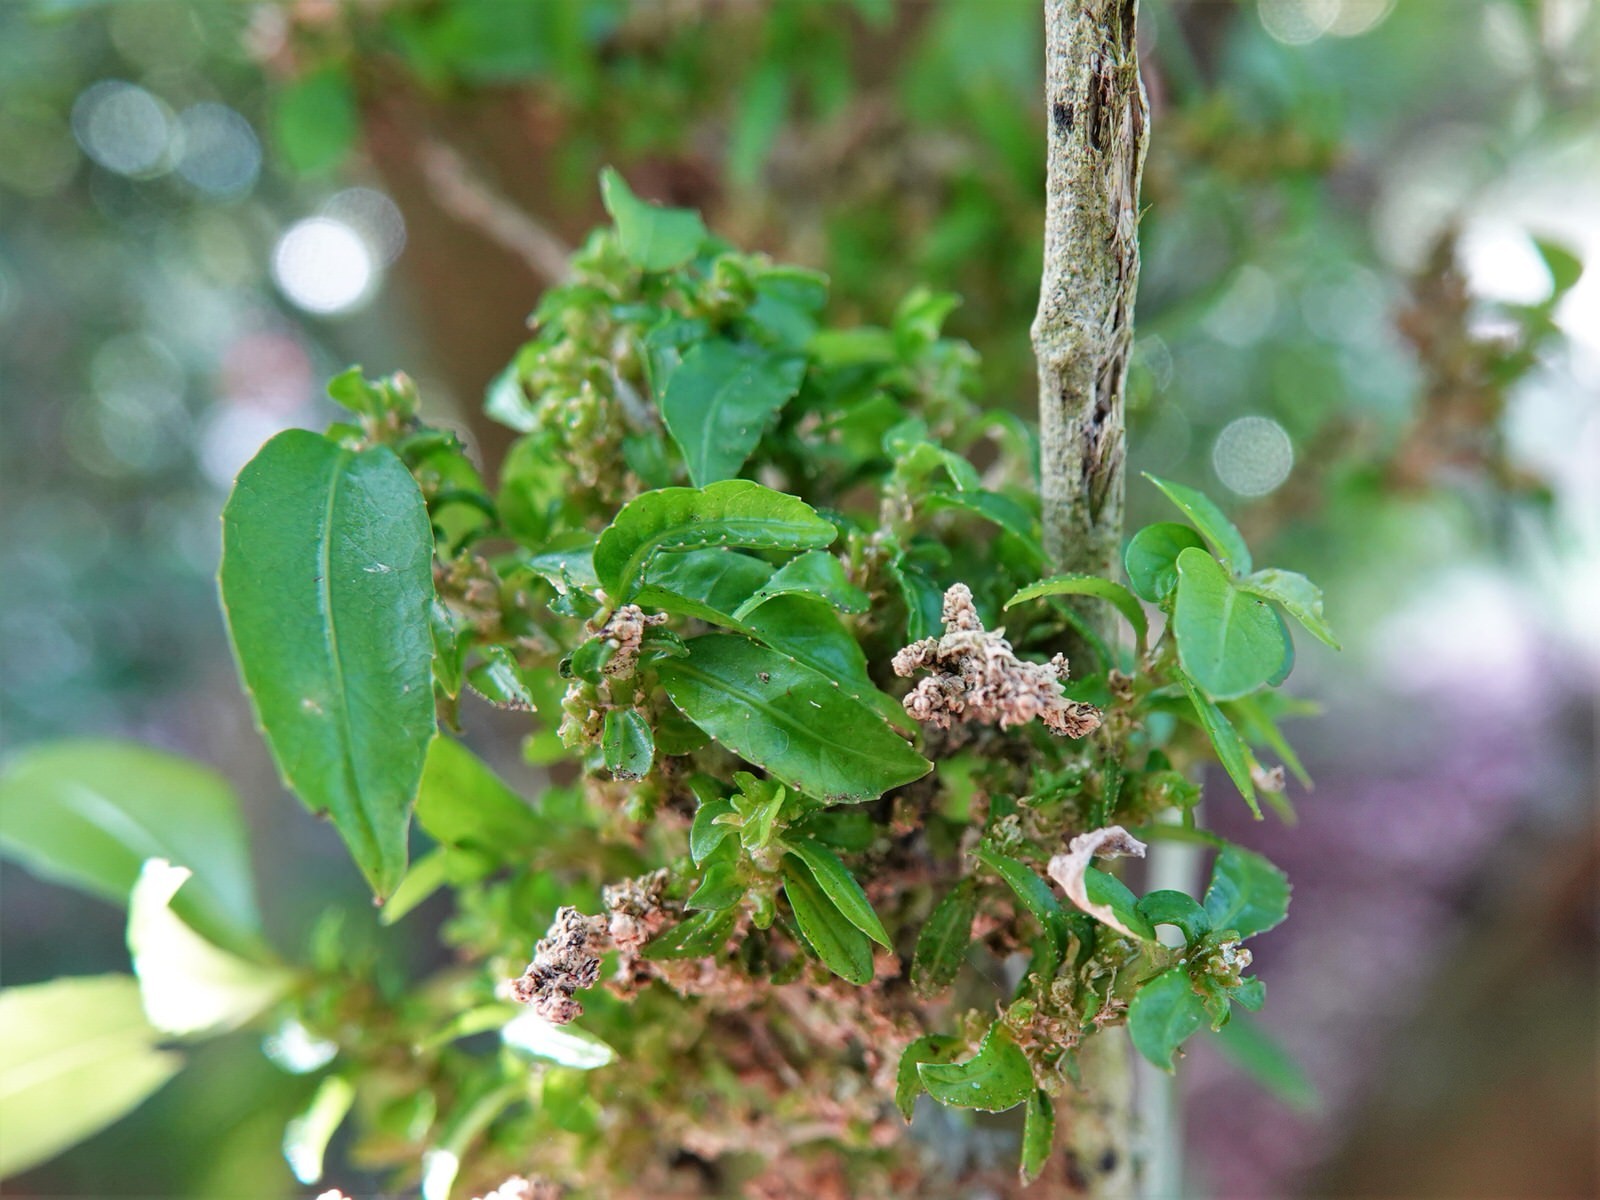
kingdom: Plantae
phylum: Tracheophyta
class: Magnoliopsida
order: Malpighiales
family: Violaceae
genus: Melicytus
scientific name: Melicytus ramiflorus
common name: Mahoe
